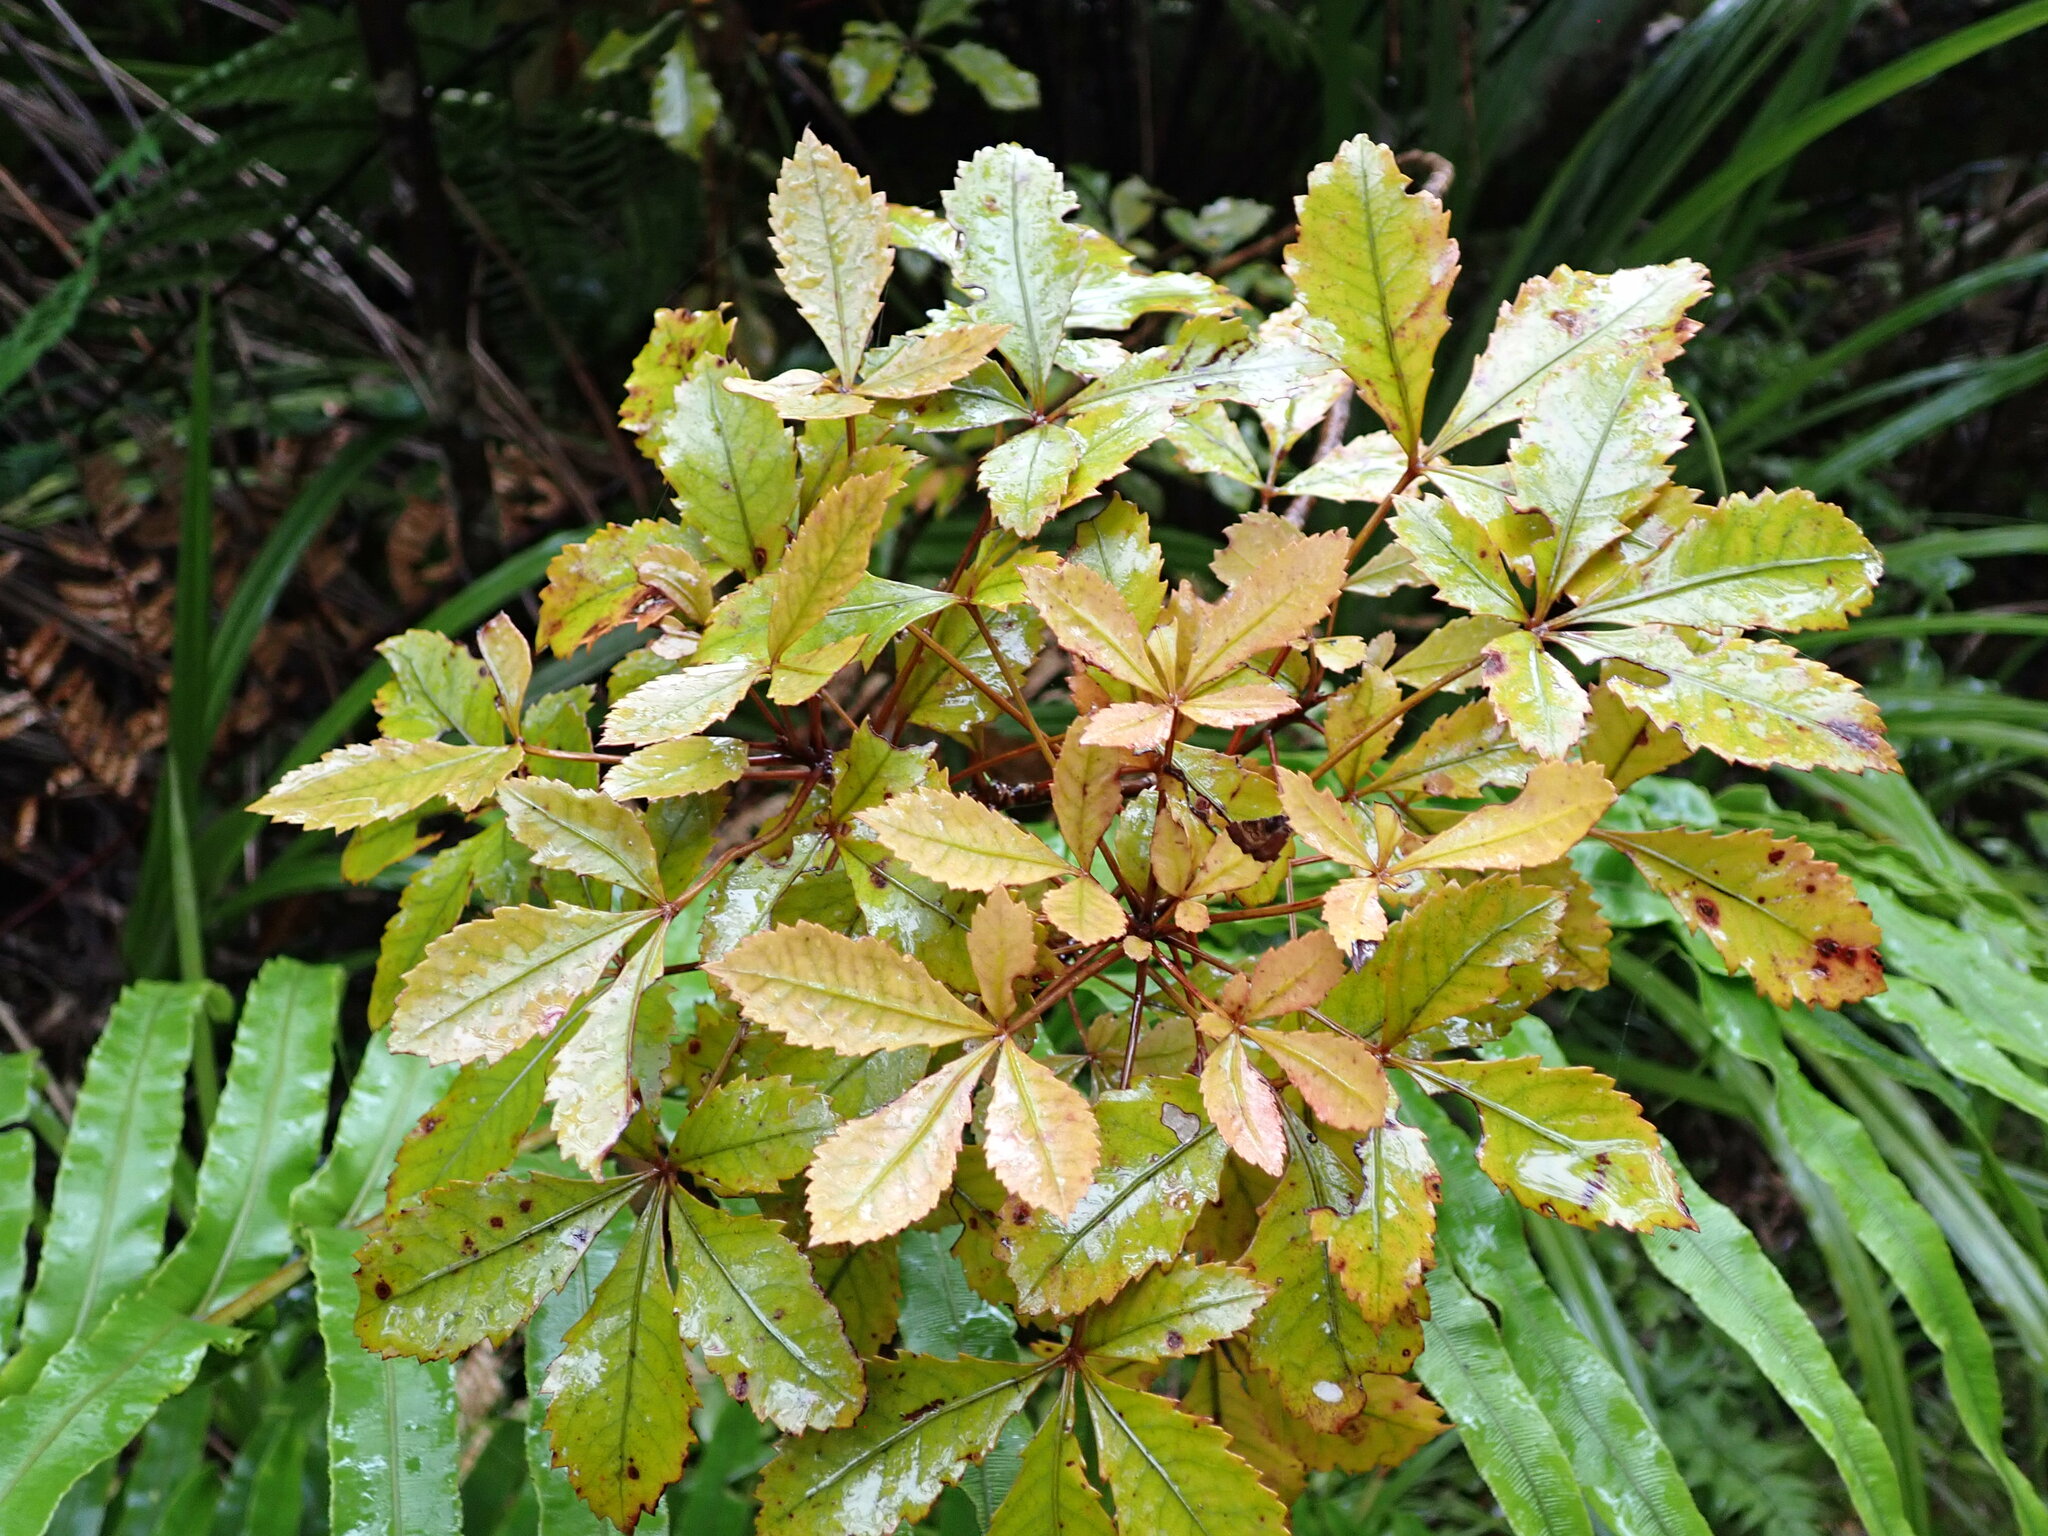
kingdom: Plantae
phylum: Tracheophyta
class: Magnoliopsida
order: Apiales
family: Araliaceae
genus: Pseudopanax
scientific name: Pseudopanax discolor
